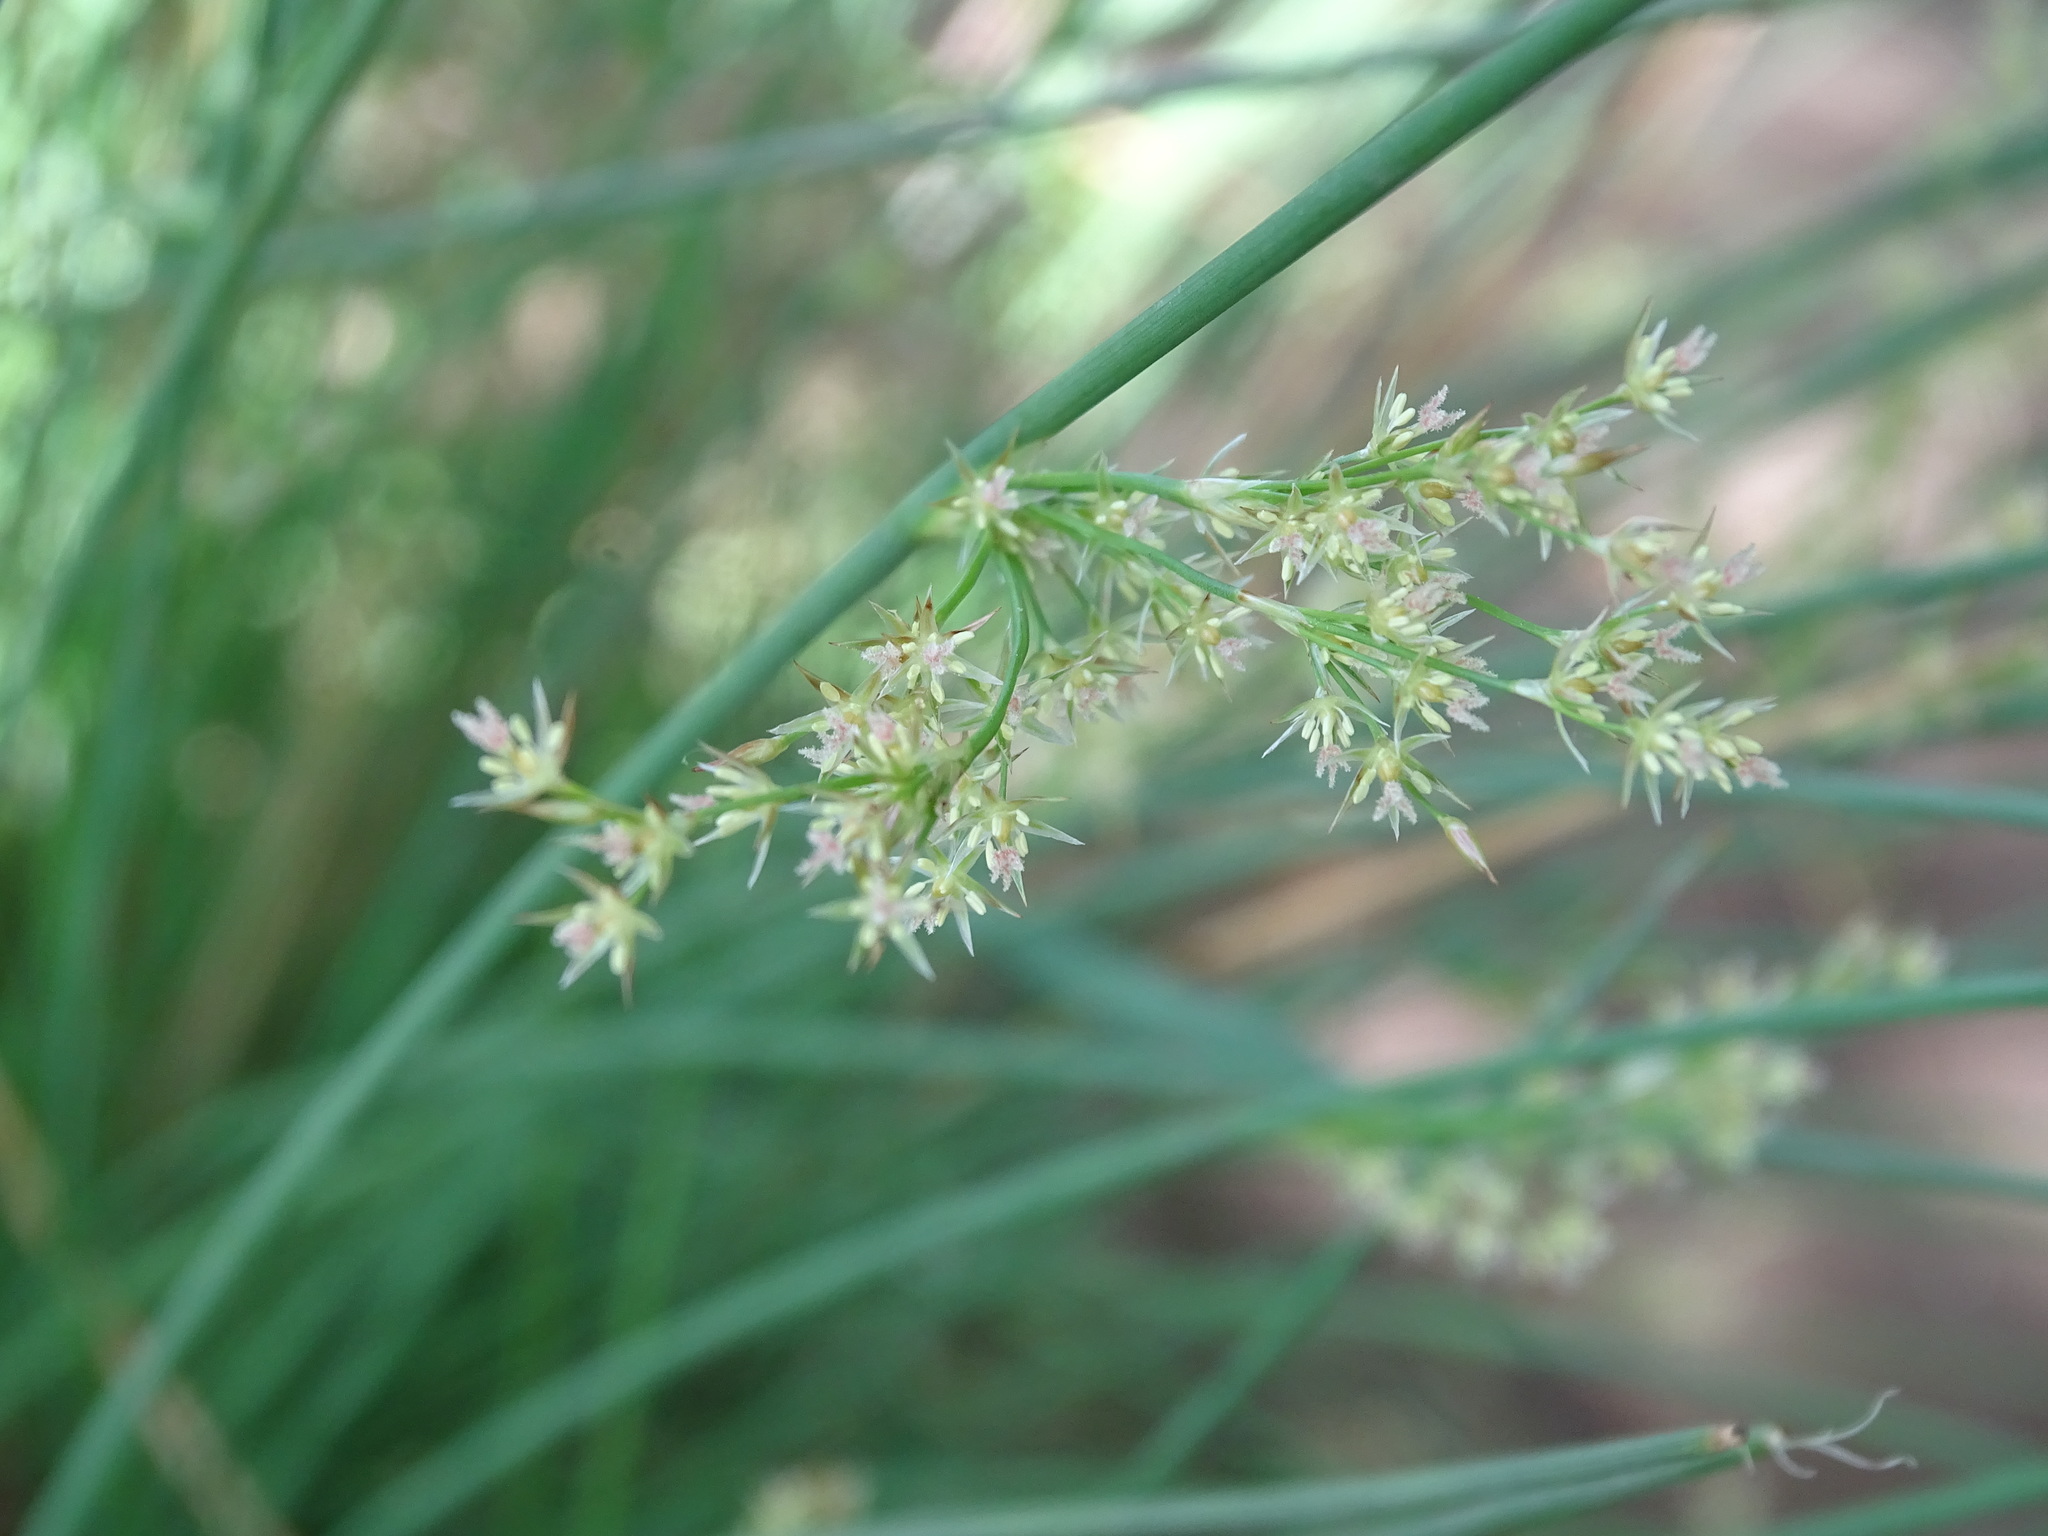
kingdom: Plantae
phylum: Tracheophyta
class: Liliopsida
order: Poales
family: Juncaceae
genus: Juncus
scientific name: Juncus inflexus
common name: Hard rush
